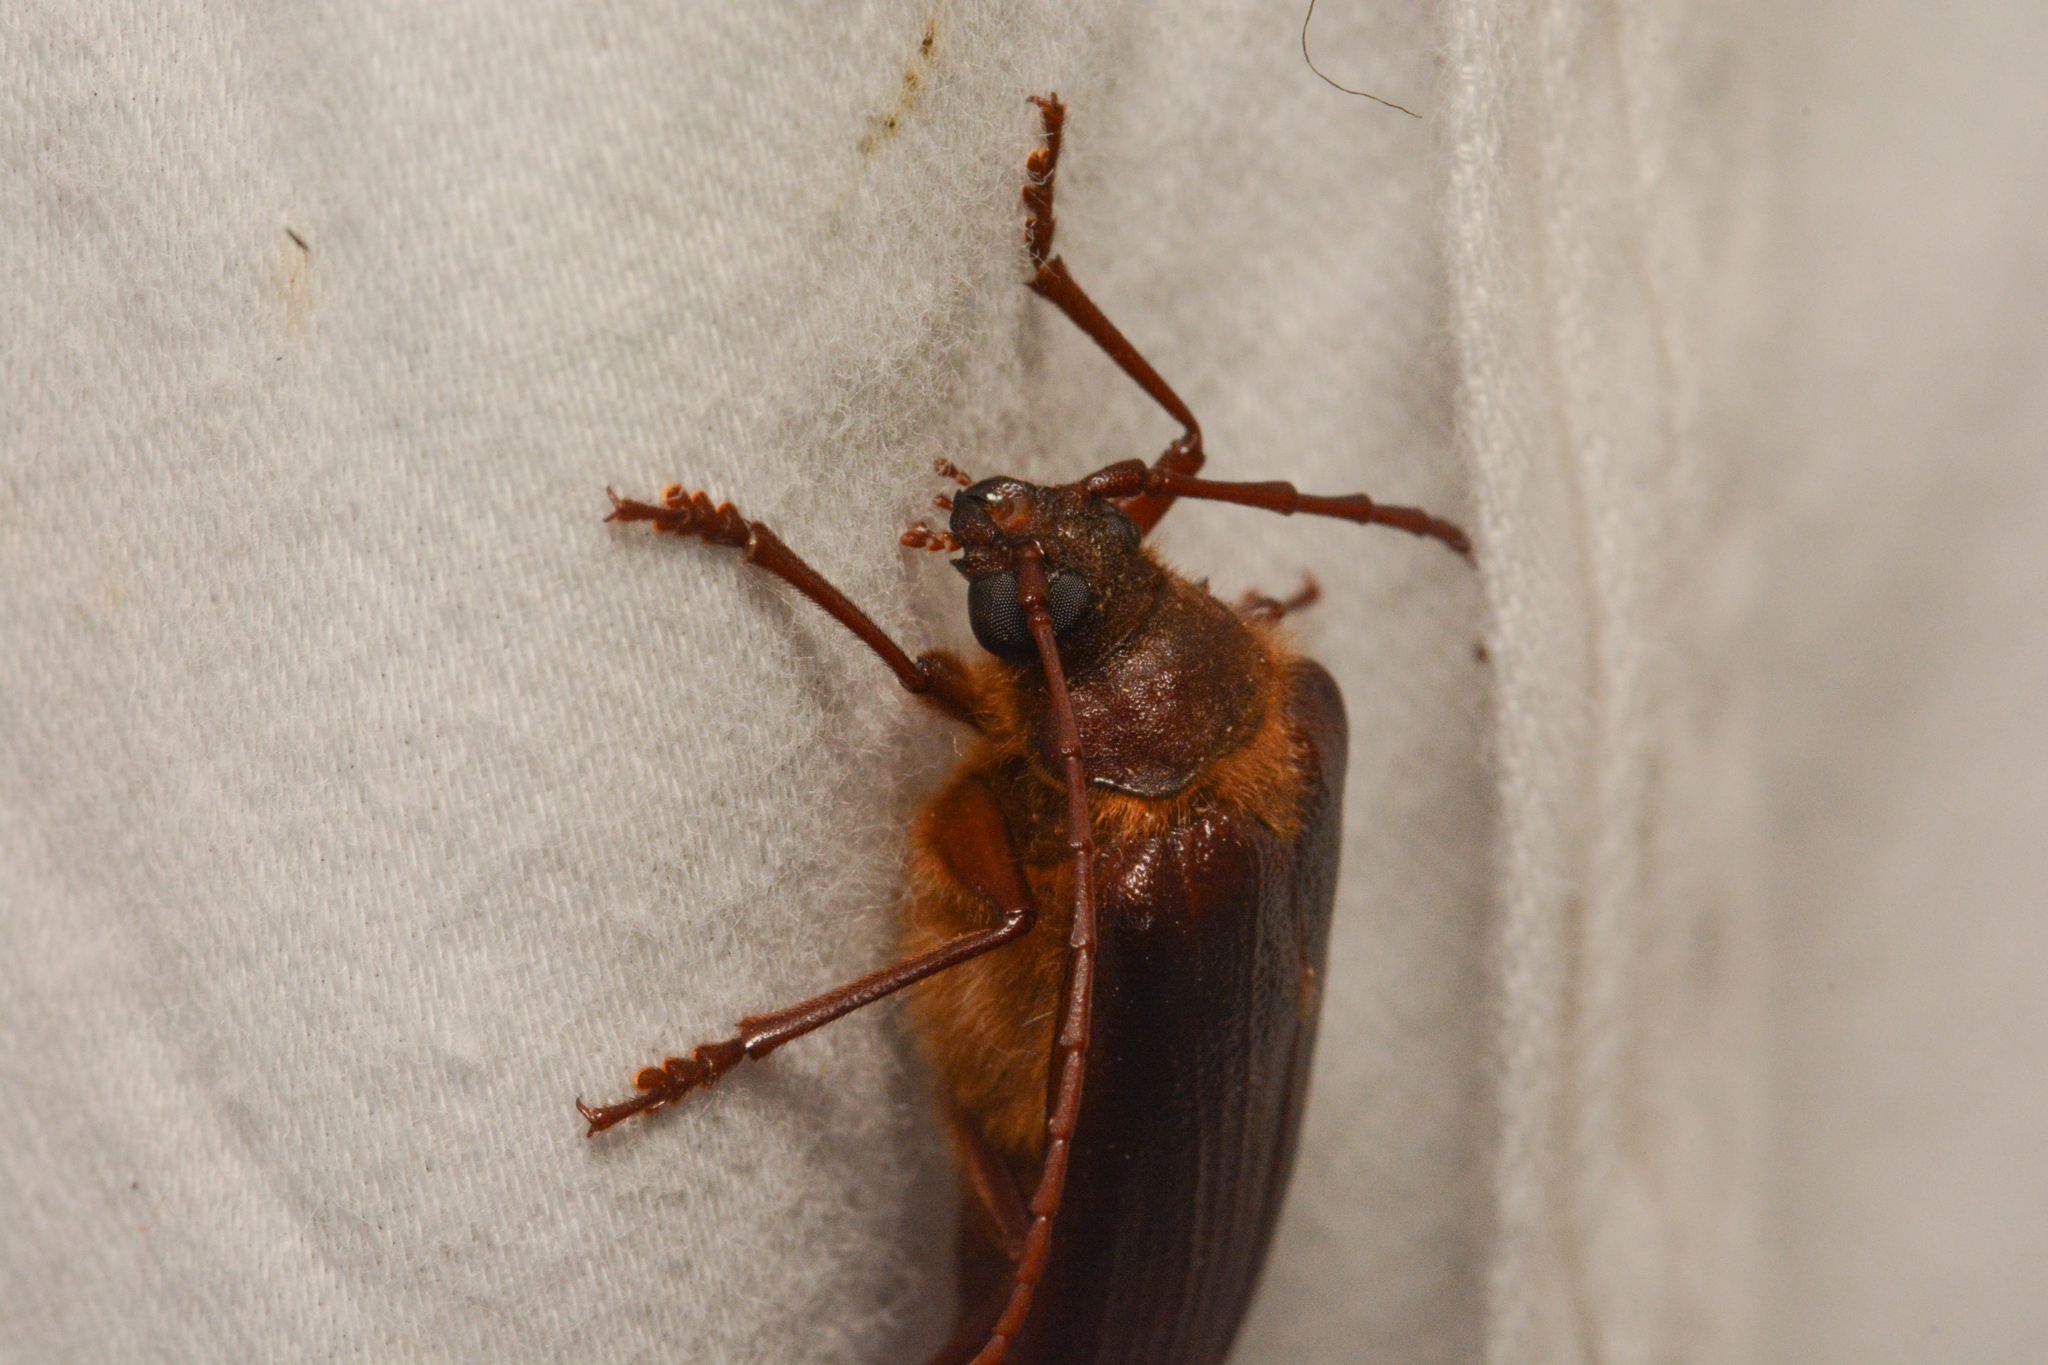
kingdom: Animalia
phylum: Arthropoda
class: Insecta
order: Coleoptera
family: Cerambycidae
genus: Tragosoma
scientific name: Tragosoma harrisii
